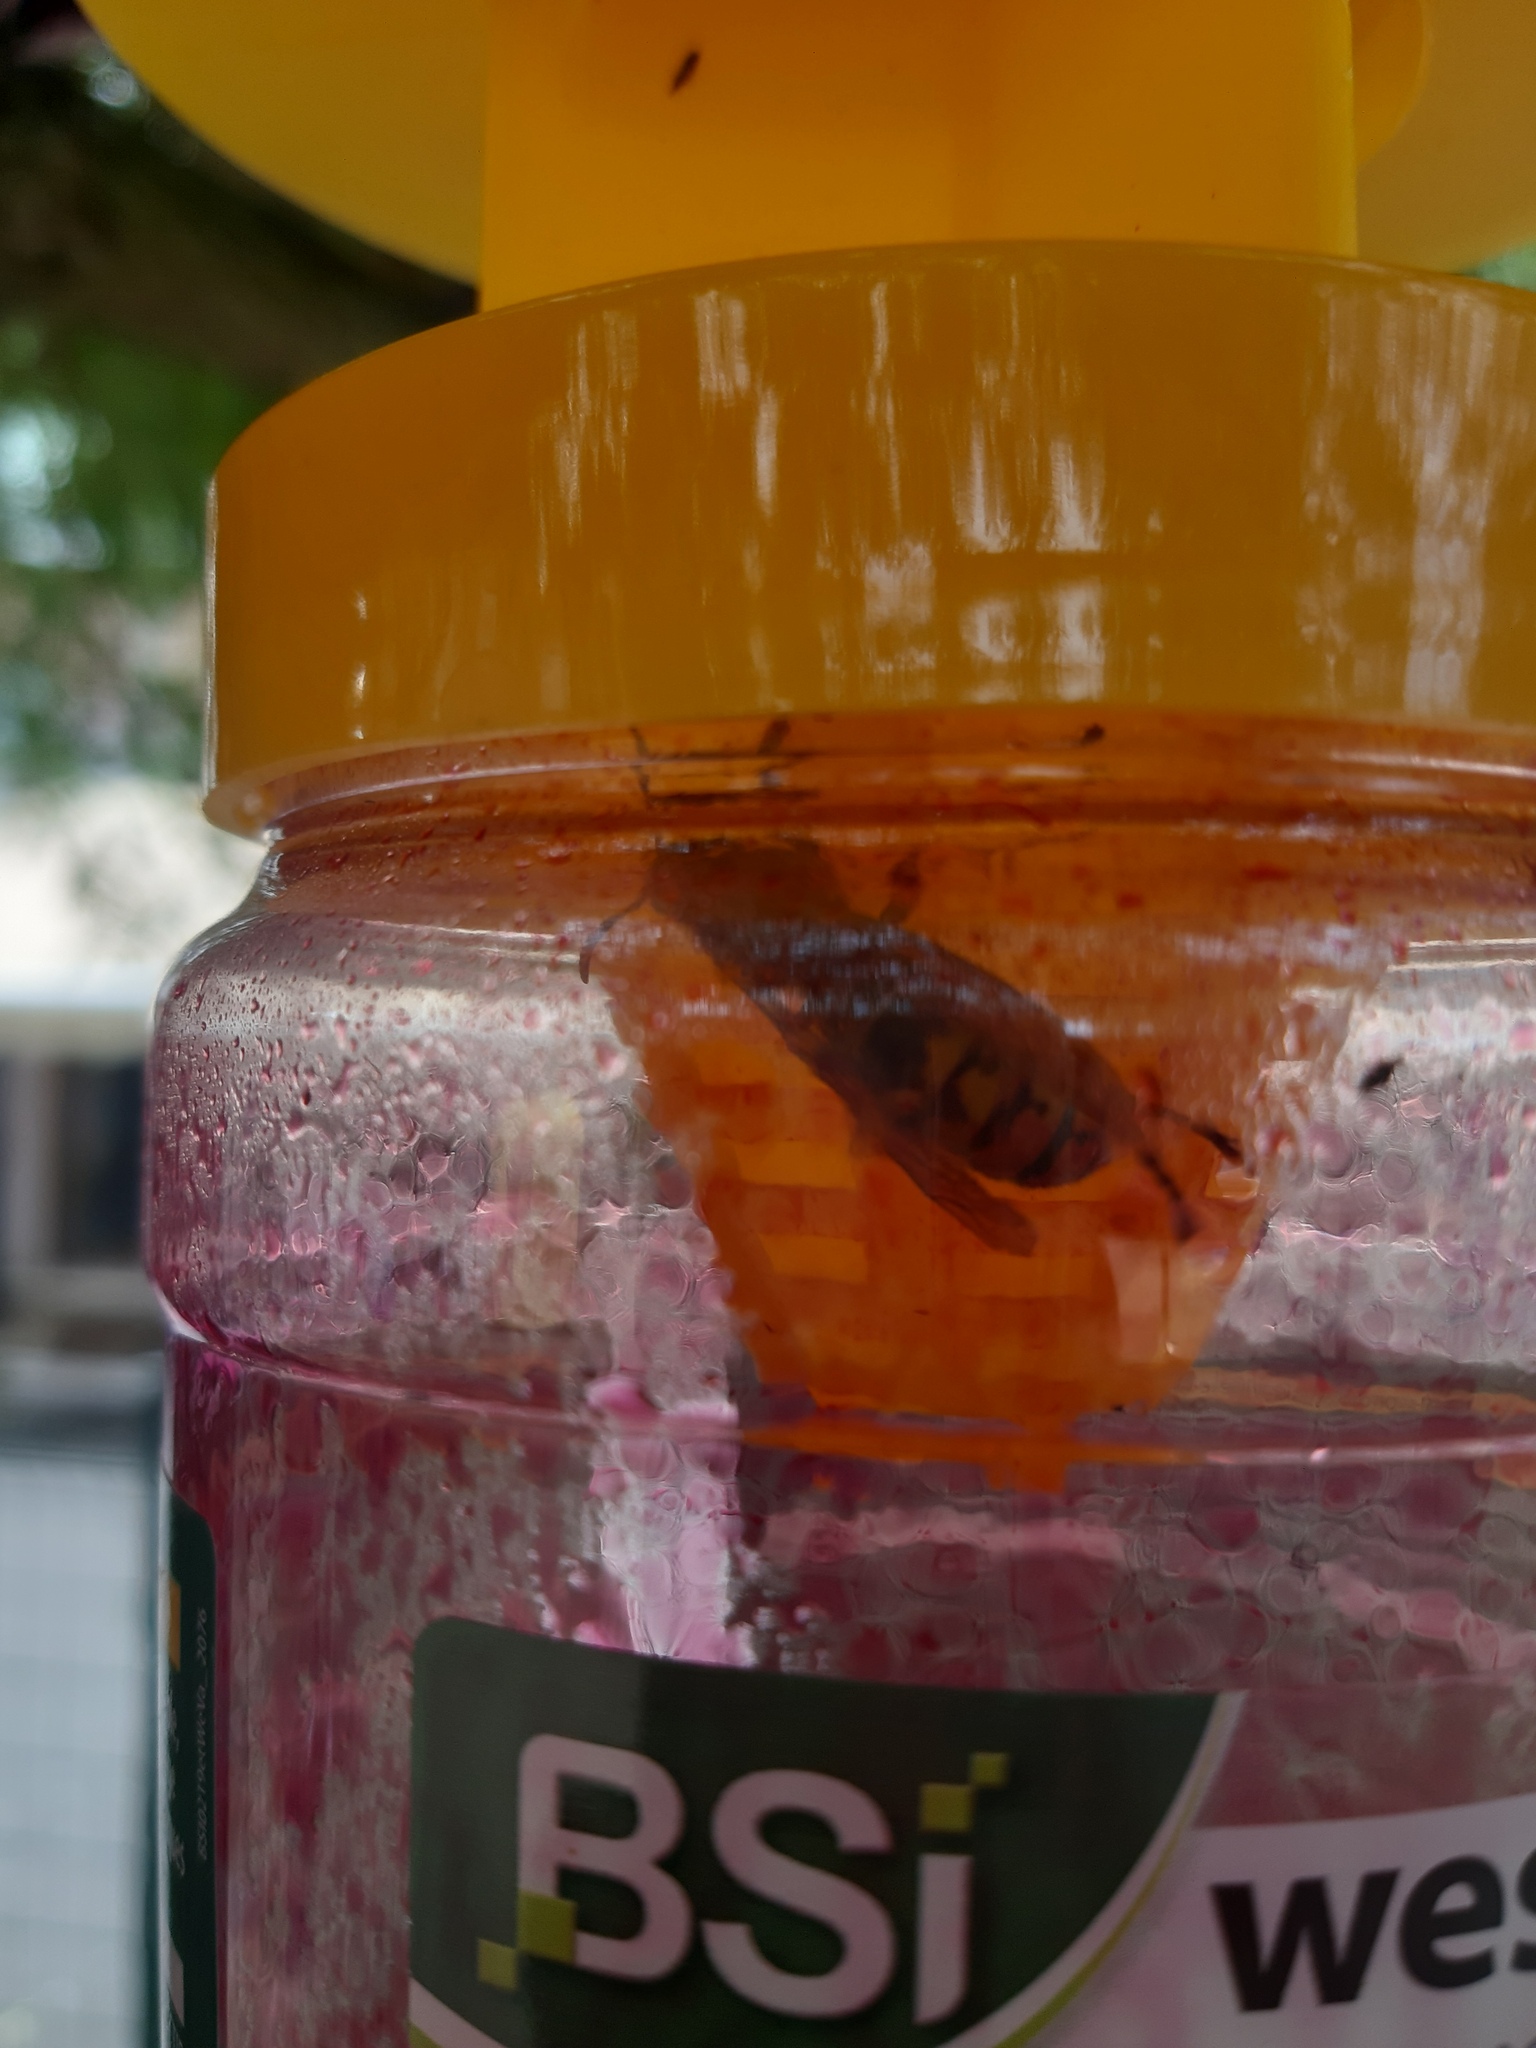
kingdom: Animalia
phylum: Arthropoda
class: Insecta
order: Hymenoptera
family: Vespidae
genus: Vespa
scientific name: Vespa crabro
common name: Hornet
